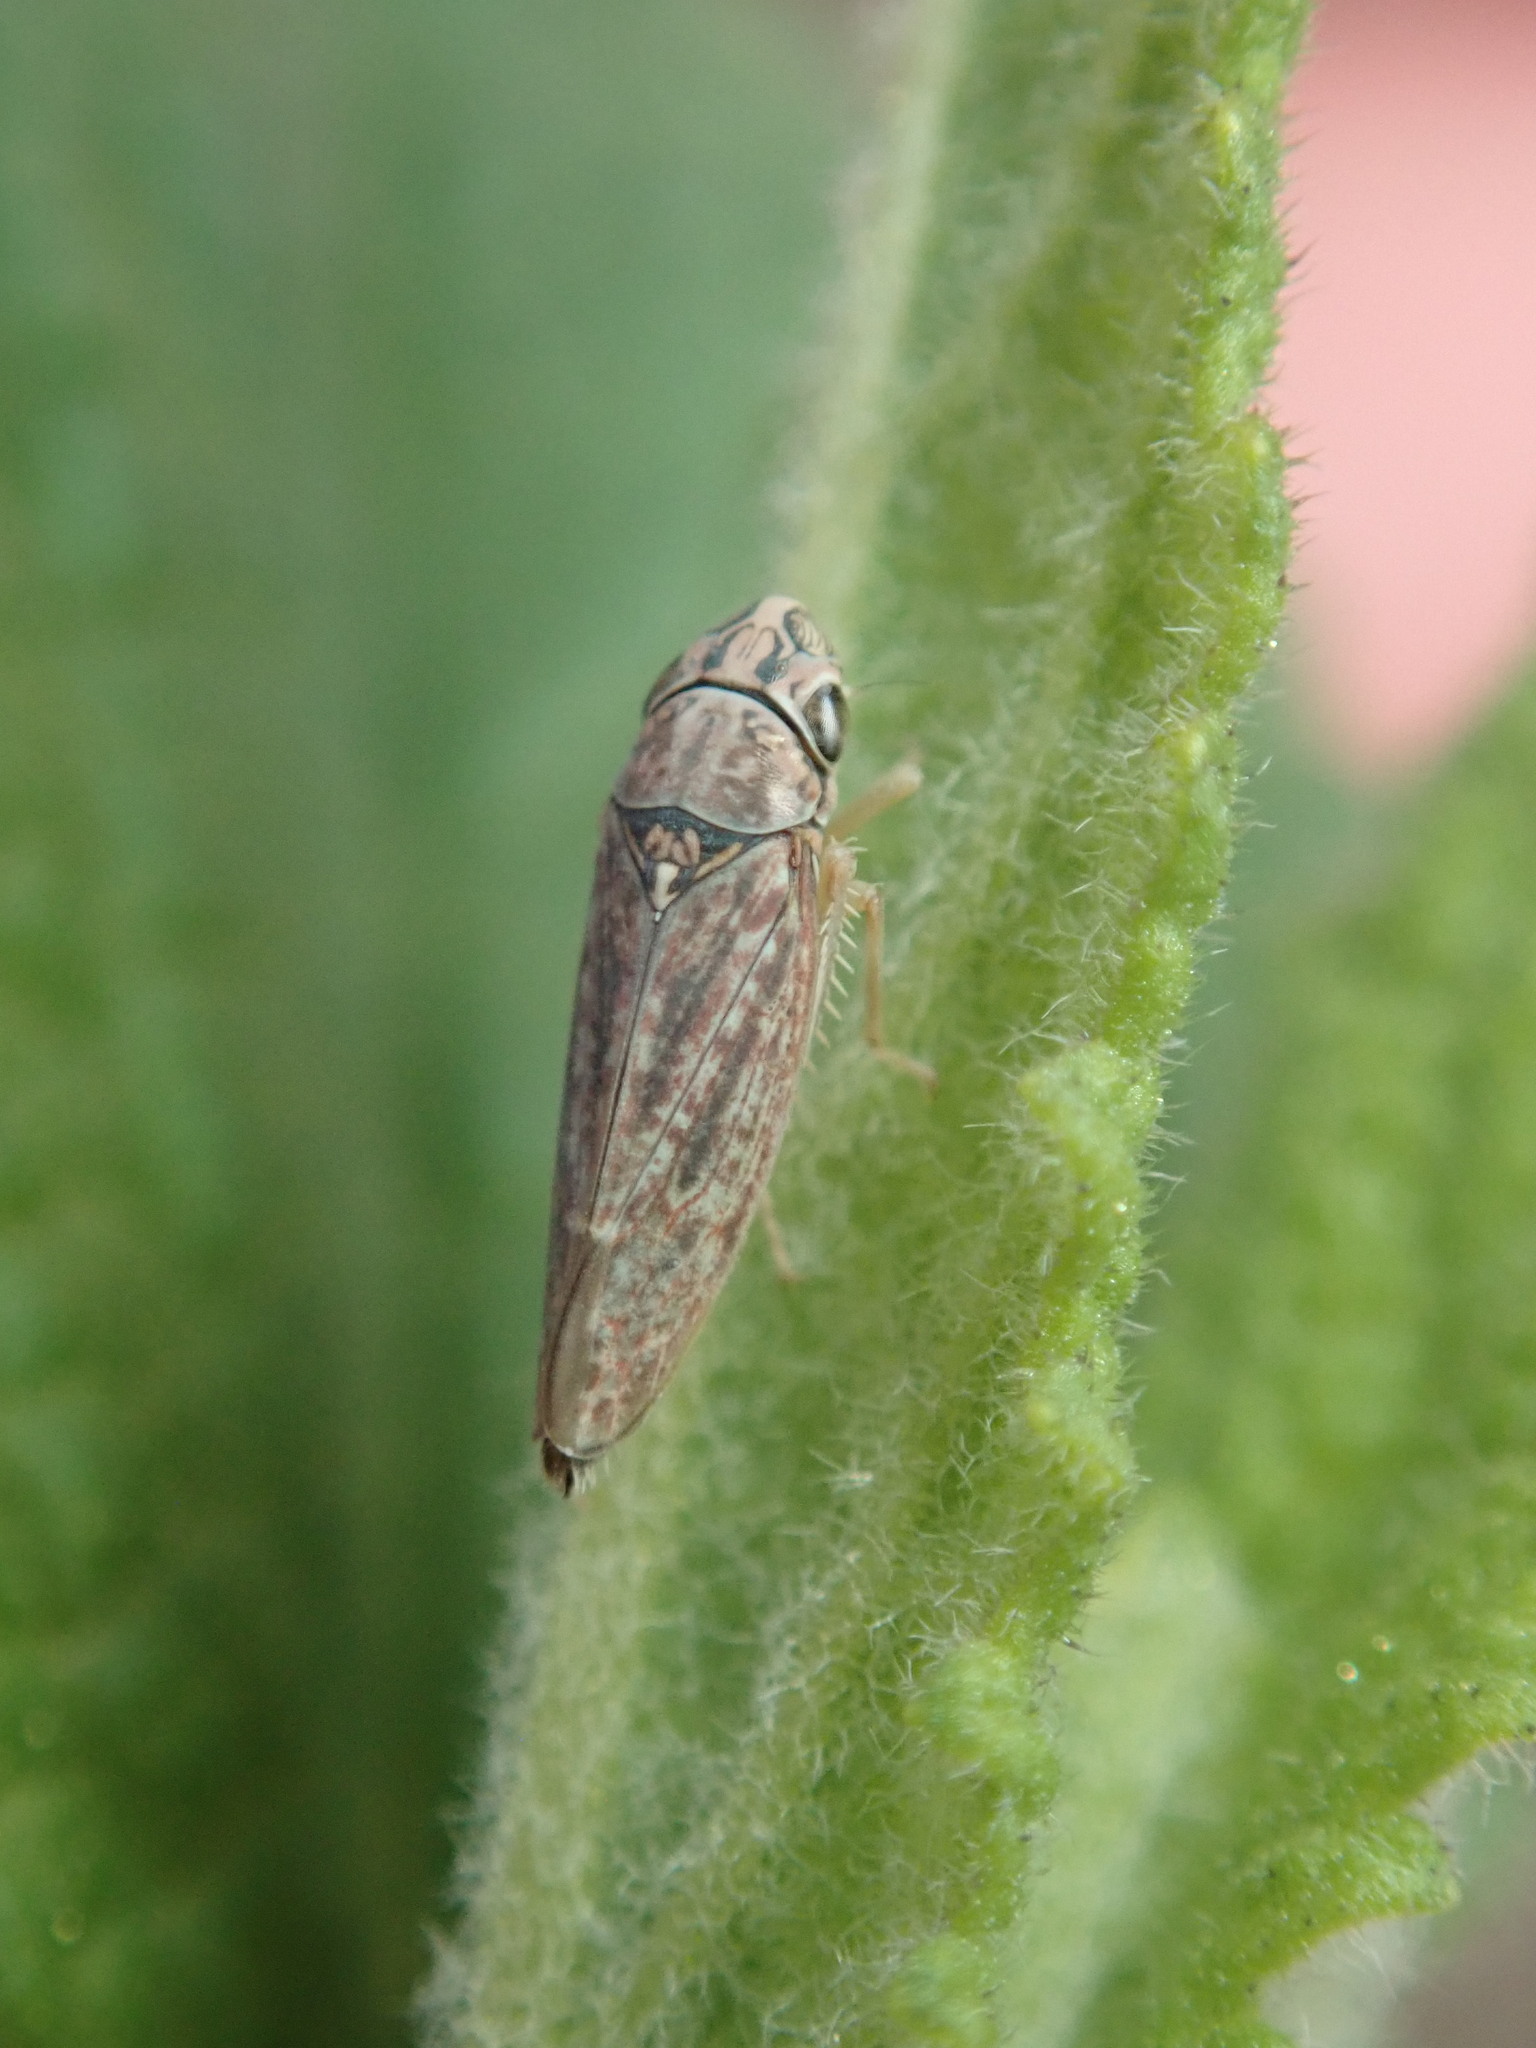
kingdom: Animalia
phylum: Arthropoda
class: Insecta
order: Hemiptera
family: Cicadellidae
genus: Neokolla
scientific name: Neokolla bispinosa
